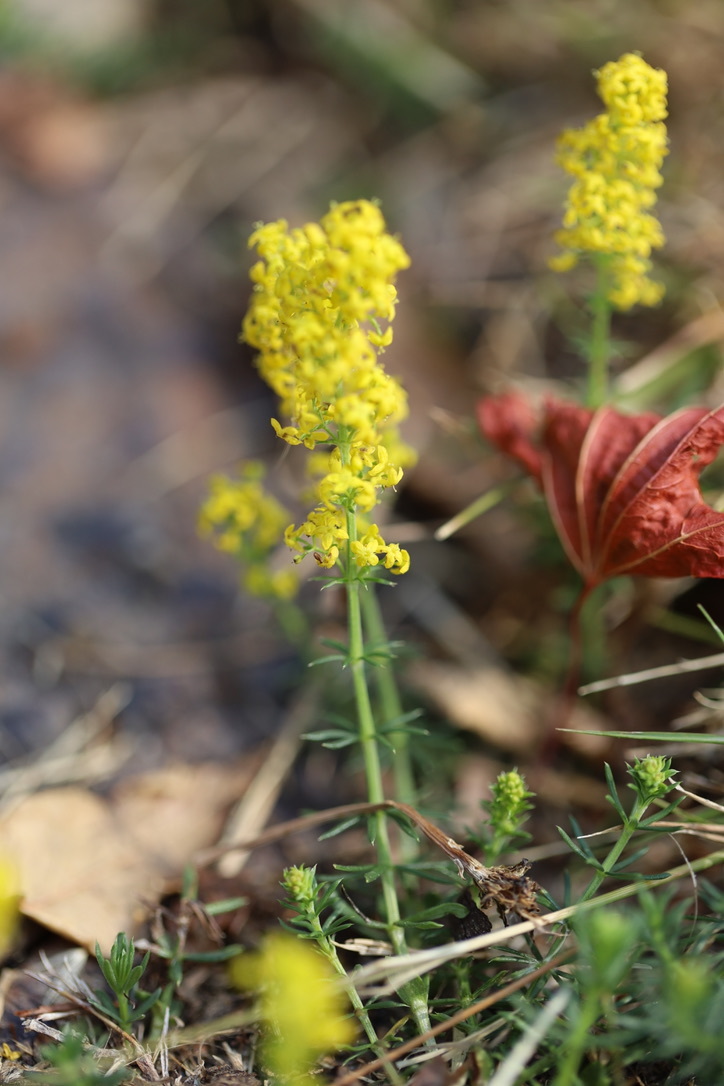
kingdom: Plantae
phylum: Tracheophyta
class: Magnoliopsida
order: Gentianales
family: Rubiaceae
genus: Galium
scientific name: Galium verum
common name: Lady's bedstraw
